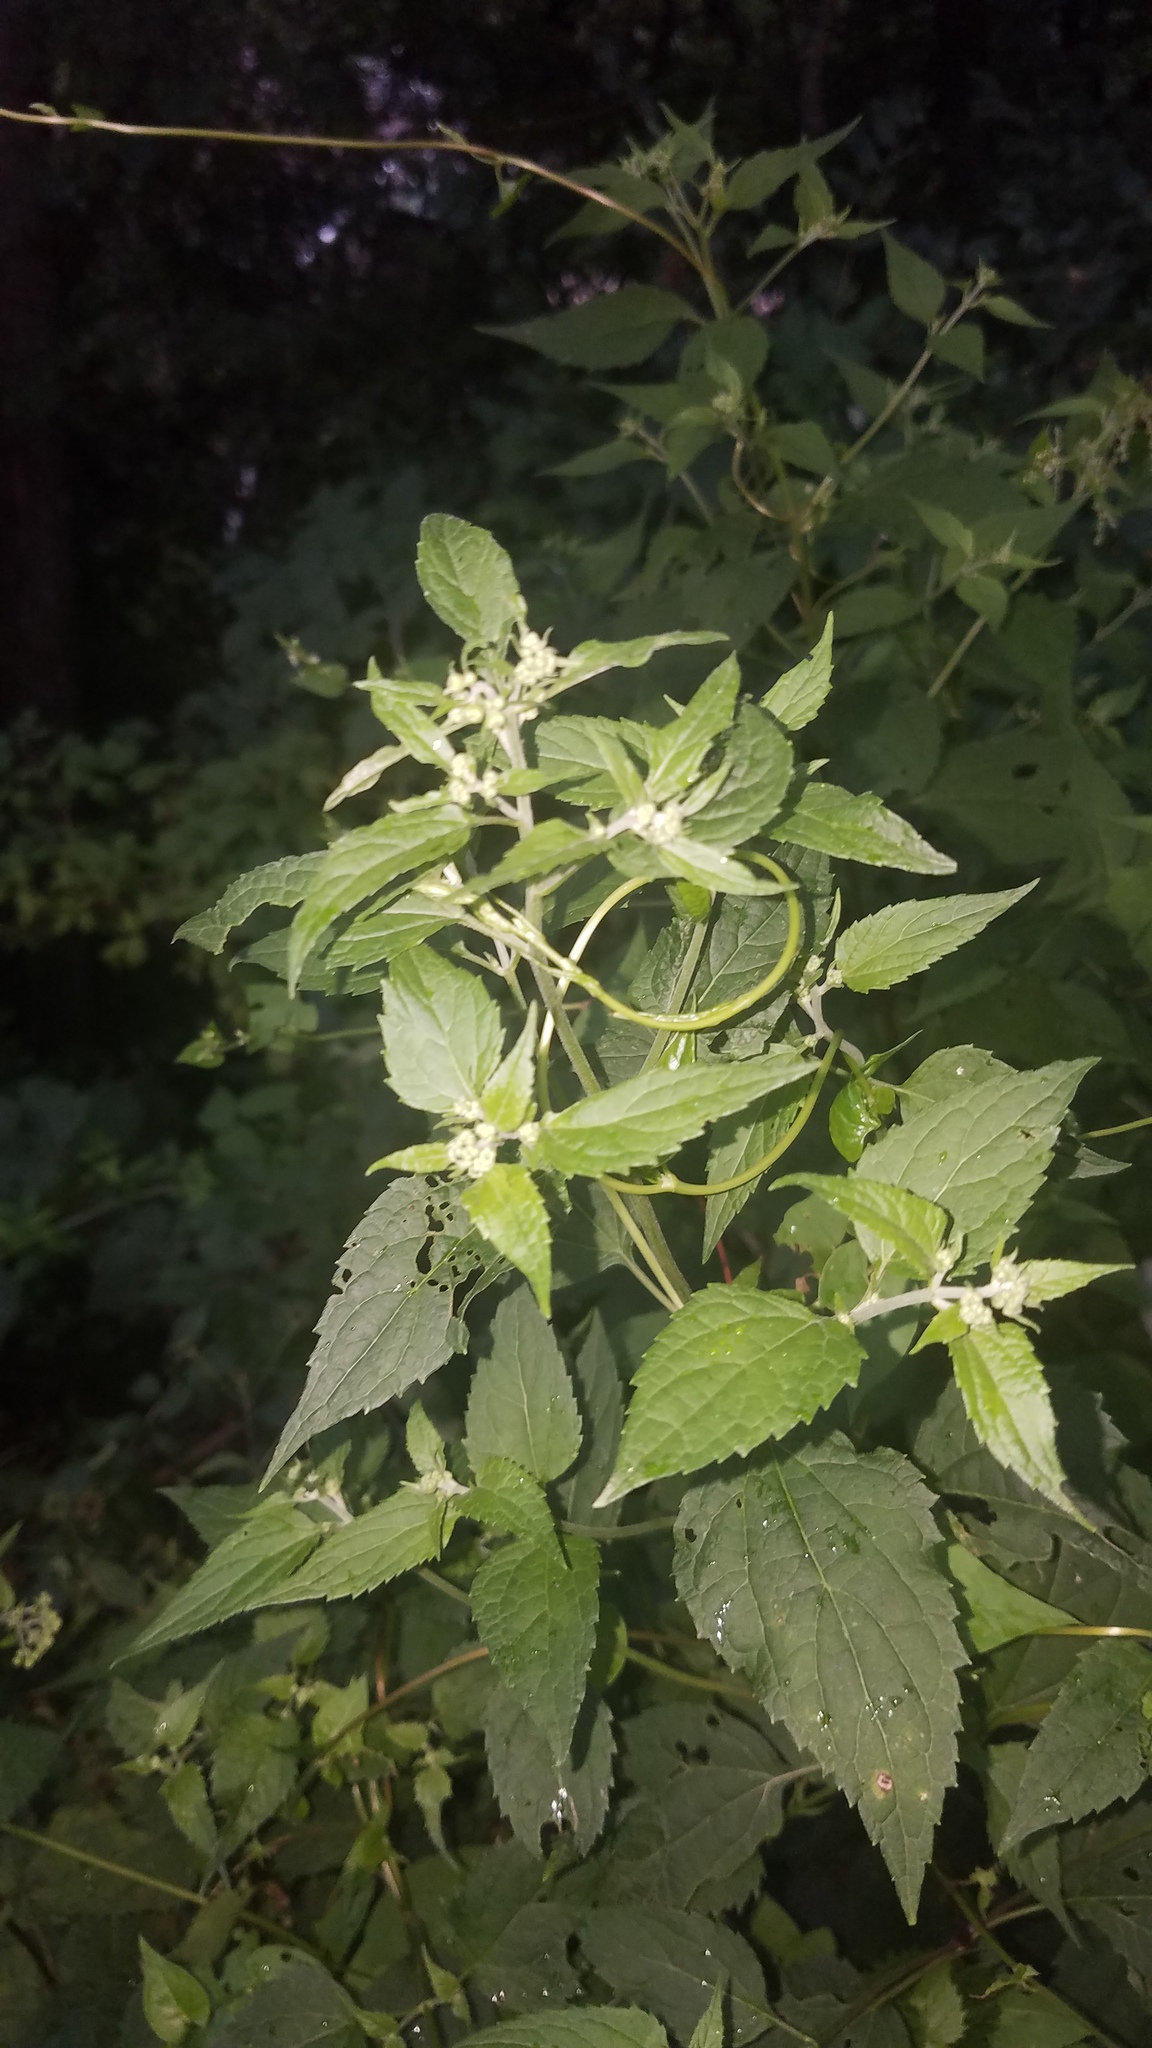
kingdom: Plantae
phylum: Tracheophyta
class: Magnoliopsida
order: Asterales
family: Asteraceae
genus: Ageratina
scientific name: Ageratina altissima
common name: White snakeroot
